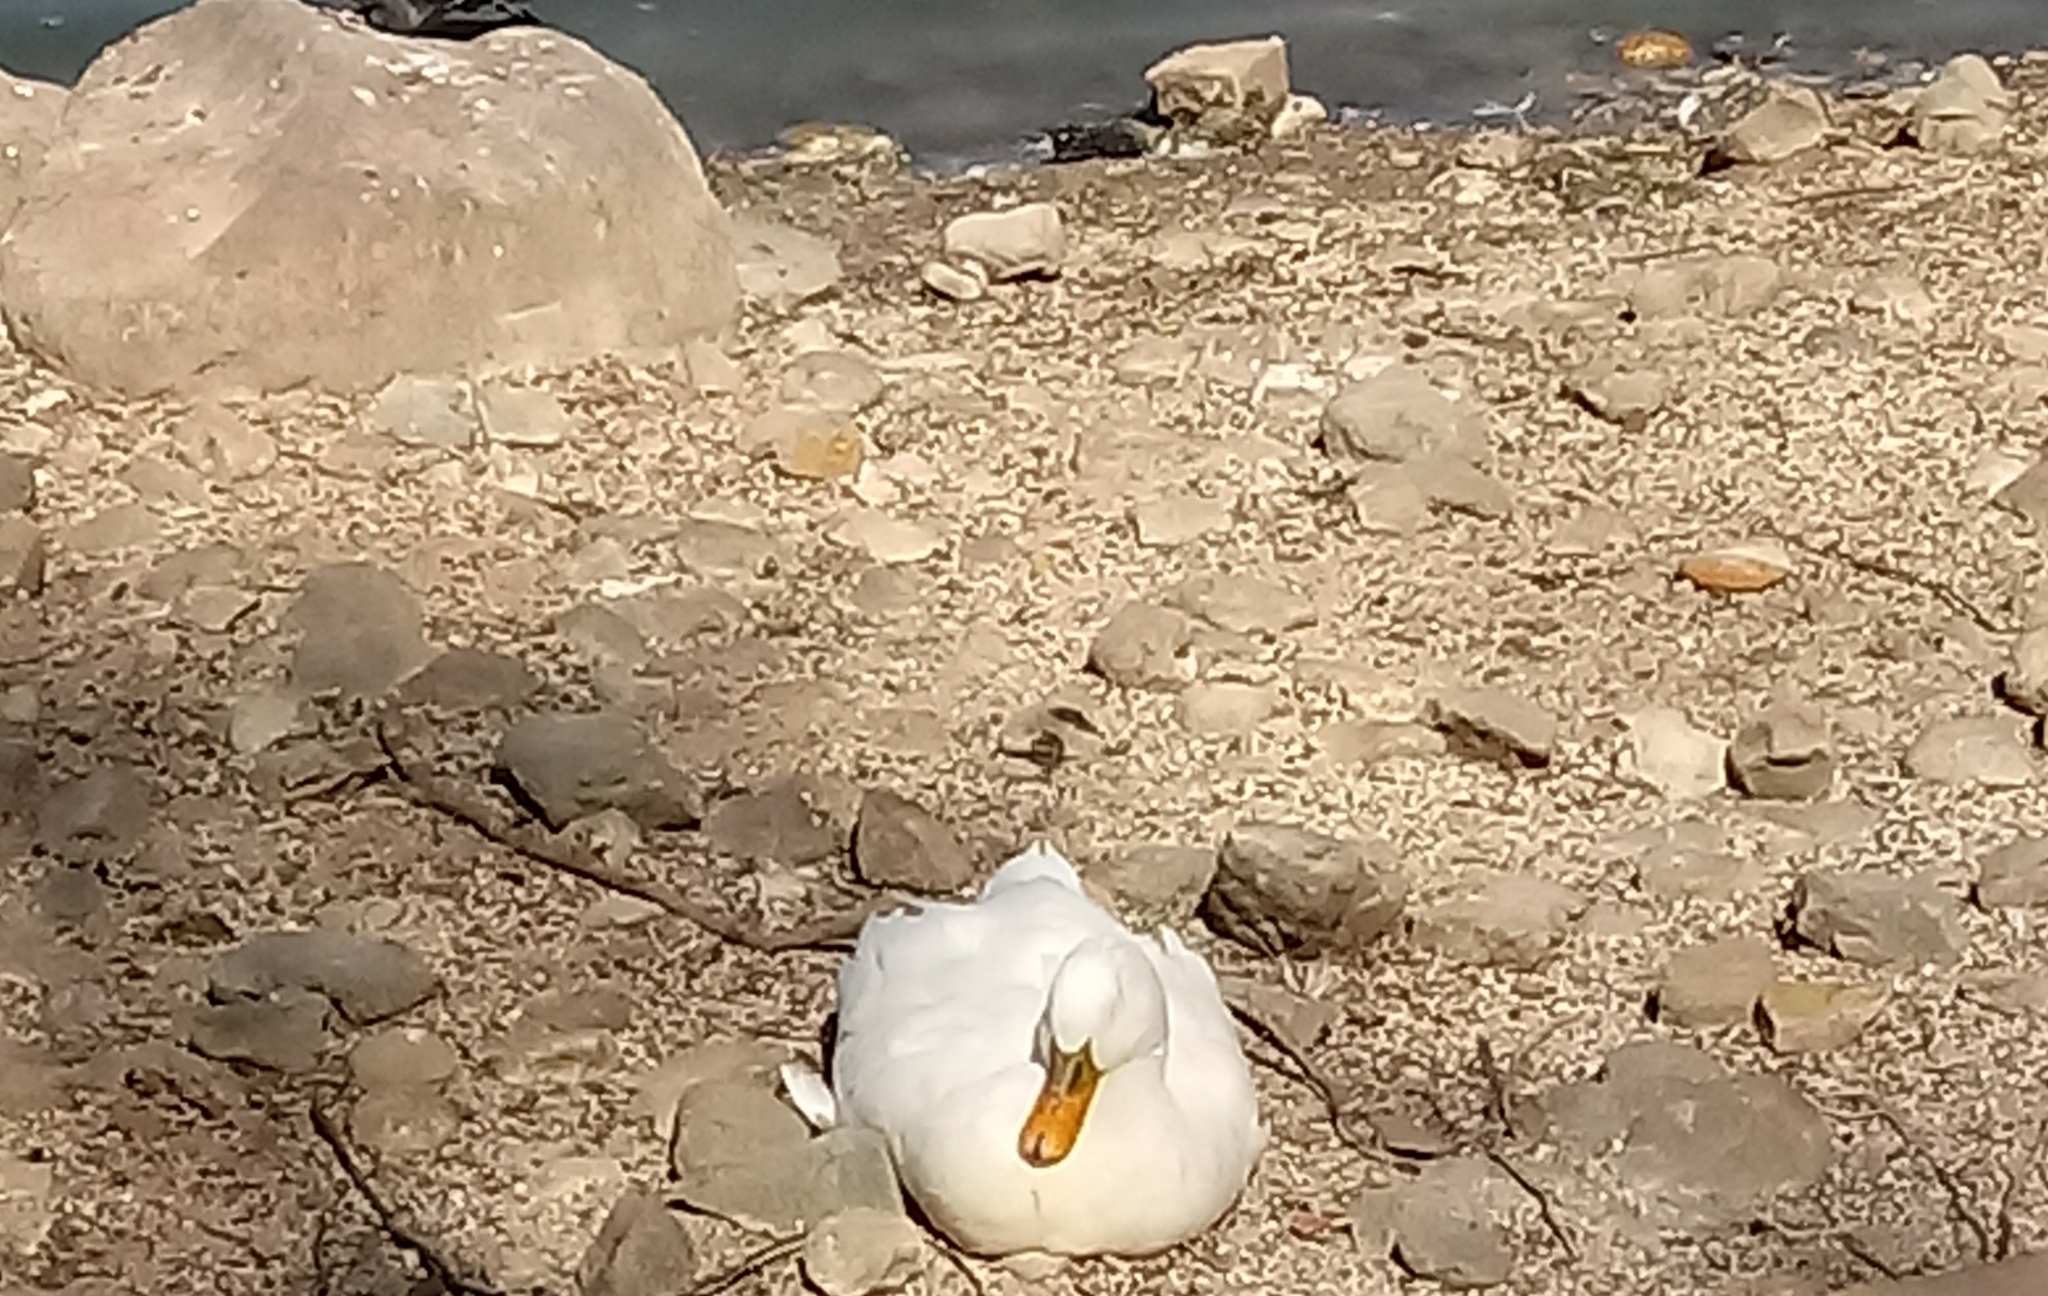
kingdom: Animalia
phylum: Chordata
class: Aves
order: Anseriformes
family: Anatidae
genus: Anas
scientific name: Anas platyrhynchos
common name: Mallard
